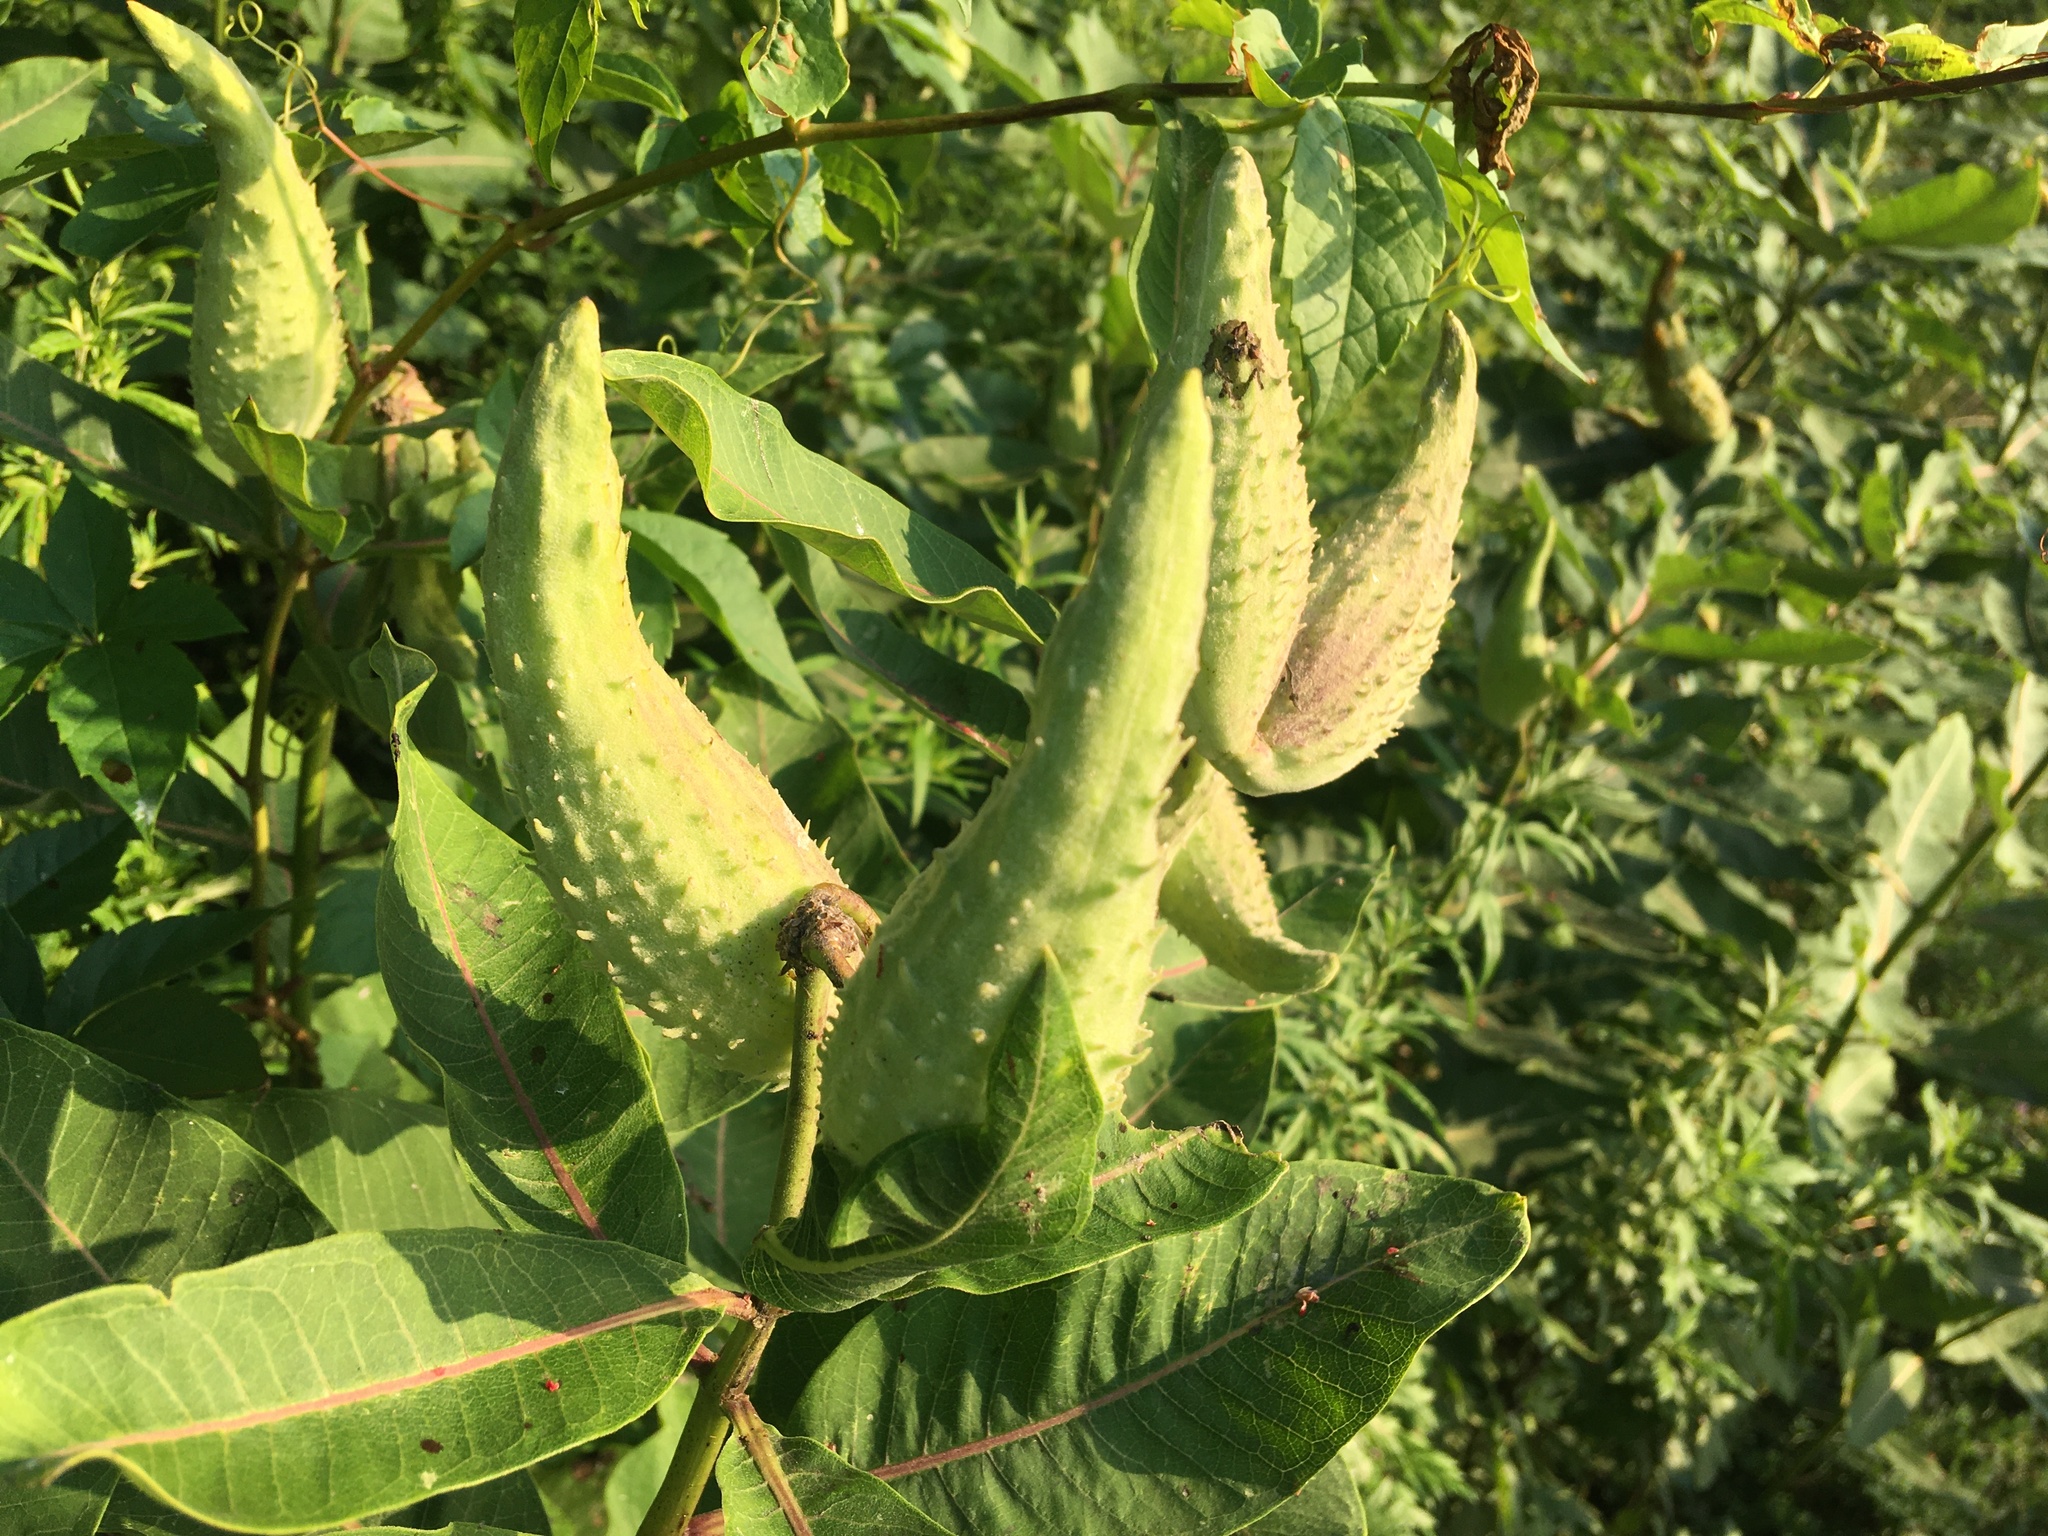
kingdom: Plantae
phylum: Tracheophyta
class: Magnoliopsida
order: Gentianales
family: Apocynaceae
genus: Asclepias
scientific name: Asclepias syriaca
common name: Common milkweed
